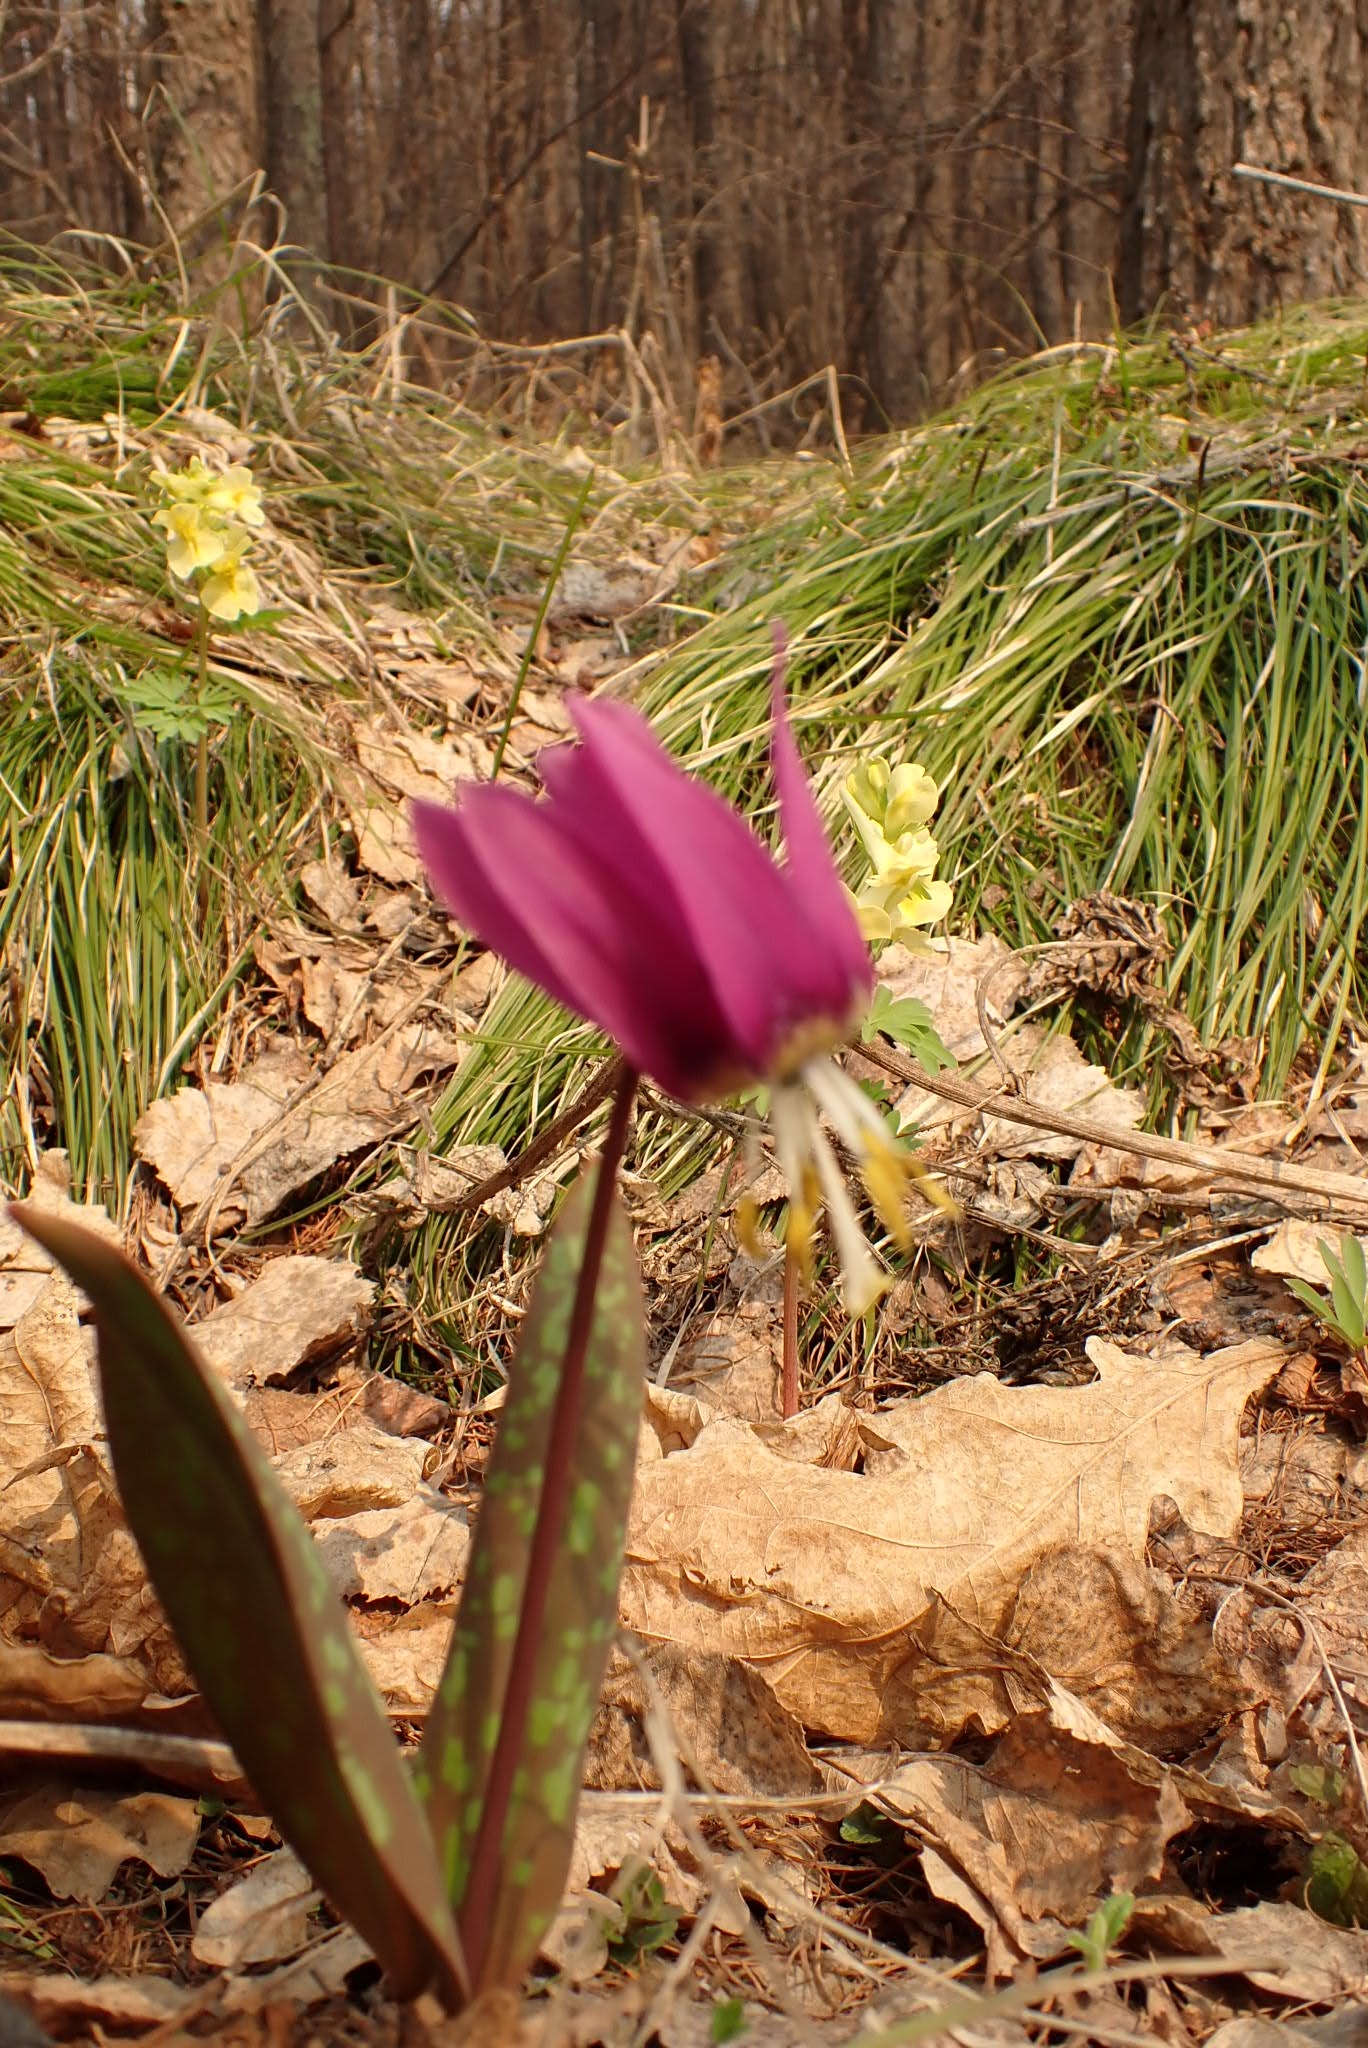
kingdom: Plantae
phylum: Tracheophyta
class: Liliopsida
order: Liliales
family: Liliaceae
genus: Erythronium
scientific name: Erythronium sibiricum
